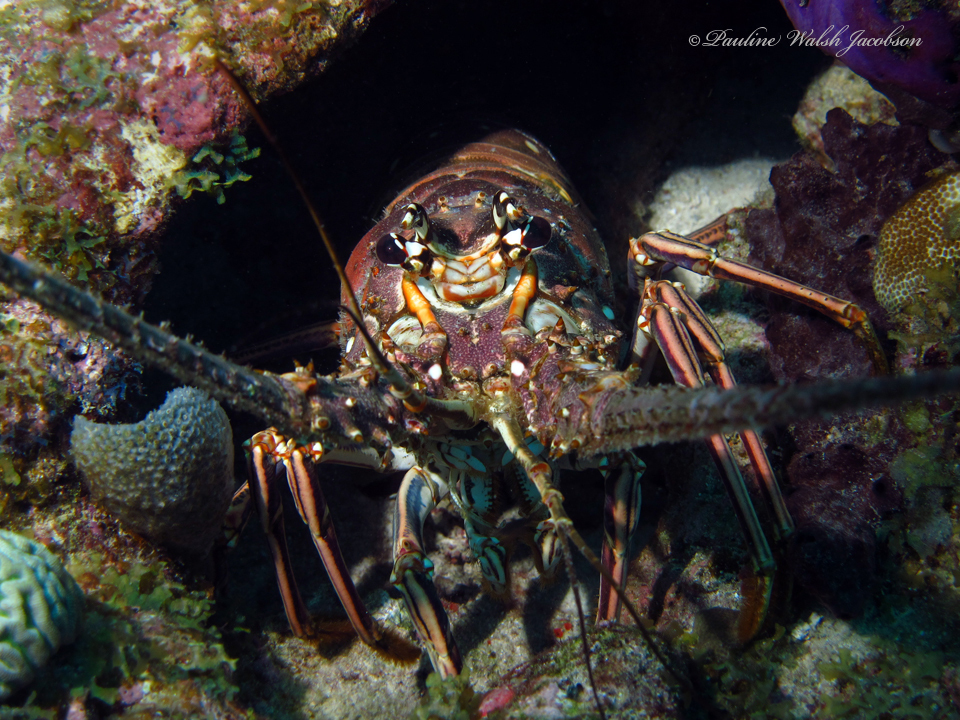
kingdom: Animalia
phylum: Arthropoda
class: Malacostraca
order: Decapoda
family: Palinuridae
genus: Panulirus
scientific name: Panulirus argus
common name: Caribbean spiny lobster
